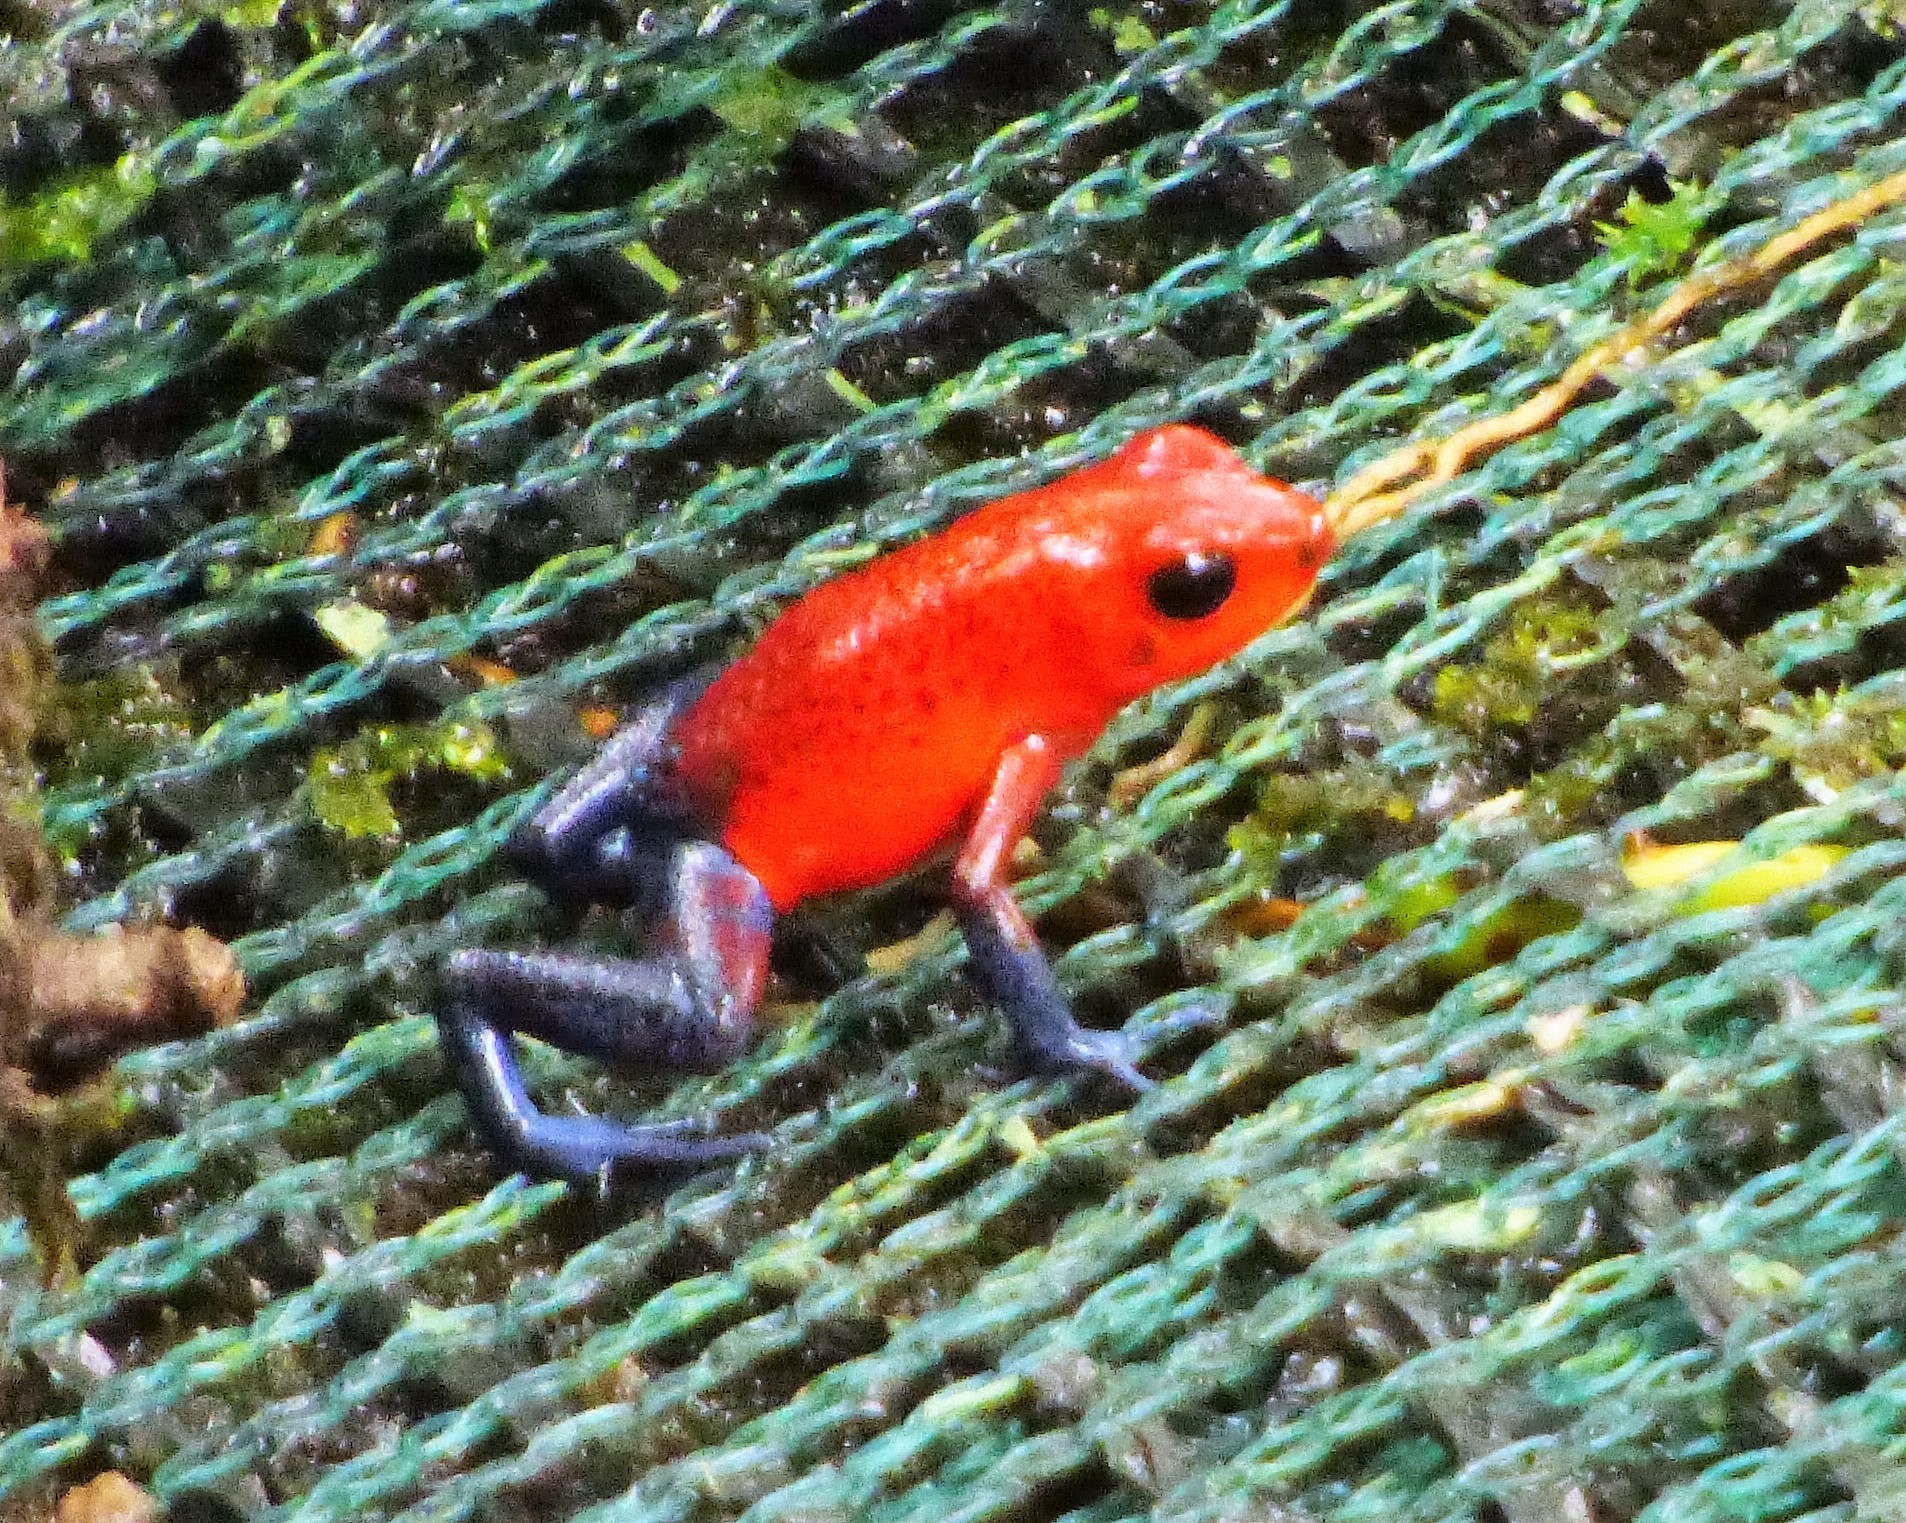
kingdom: Animalia
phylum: Chordata
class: Amphibia
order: Anura
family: Dendrobatidae
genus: Oophaga
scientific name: Oophaga pumilio
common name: Flaming poison frog
